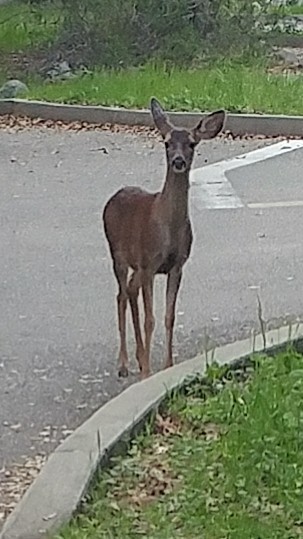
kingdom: Animalia
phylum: Chordata
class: Mammalia
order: Artiodactyla
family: Cervidae
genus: Odocoileus
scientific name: Odocoileus hemionus
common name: Mule deer
